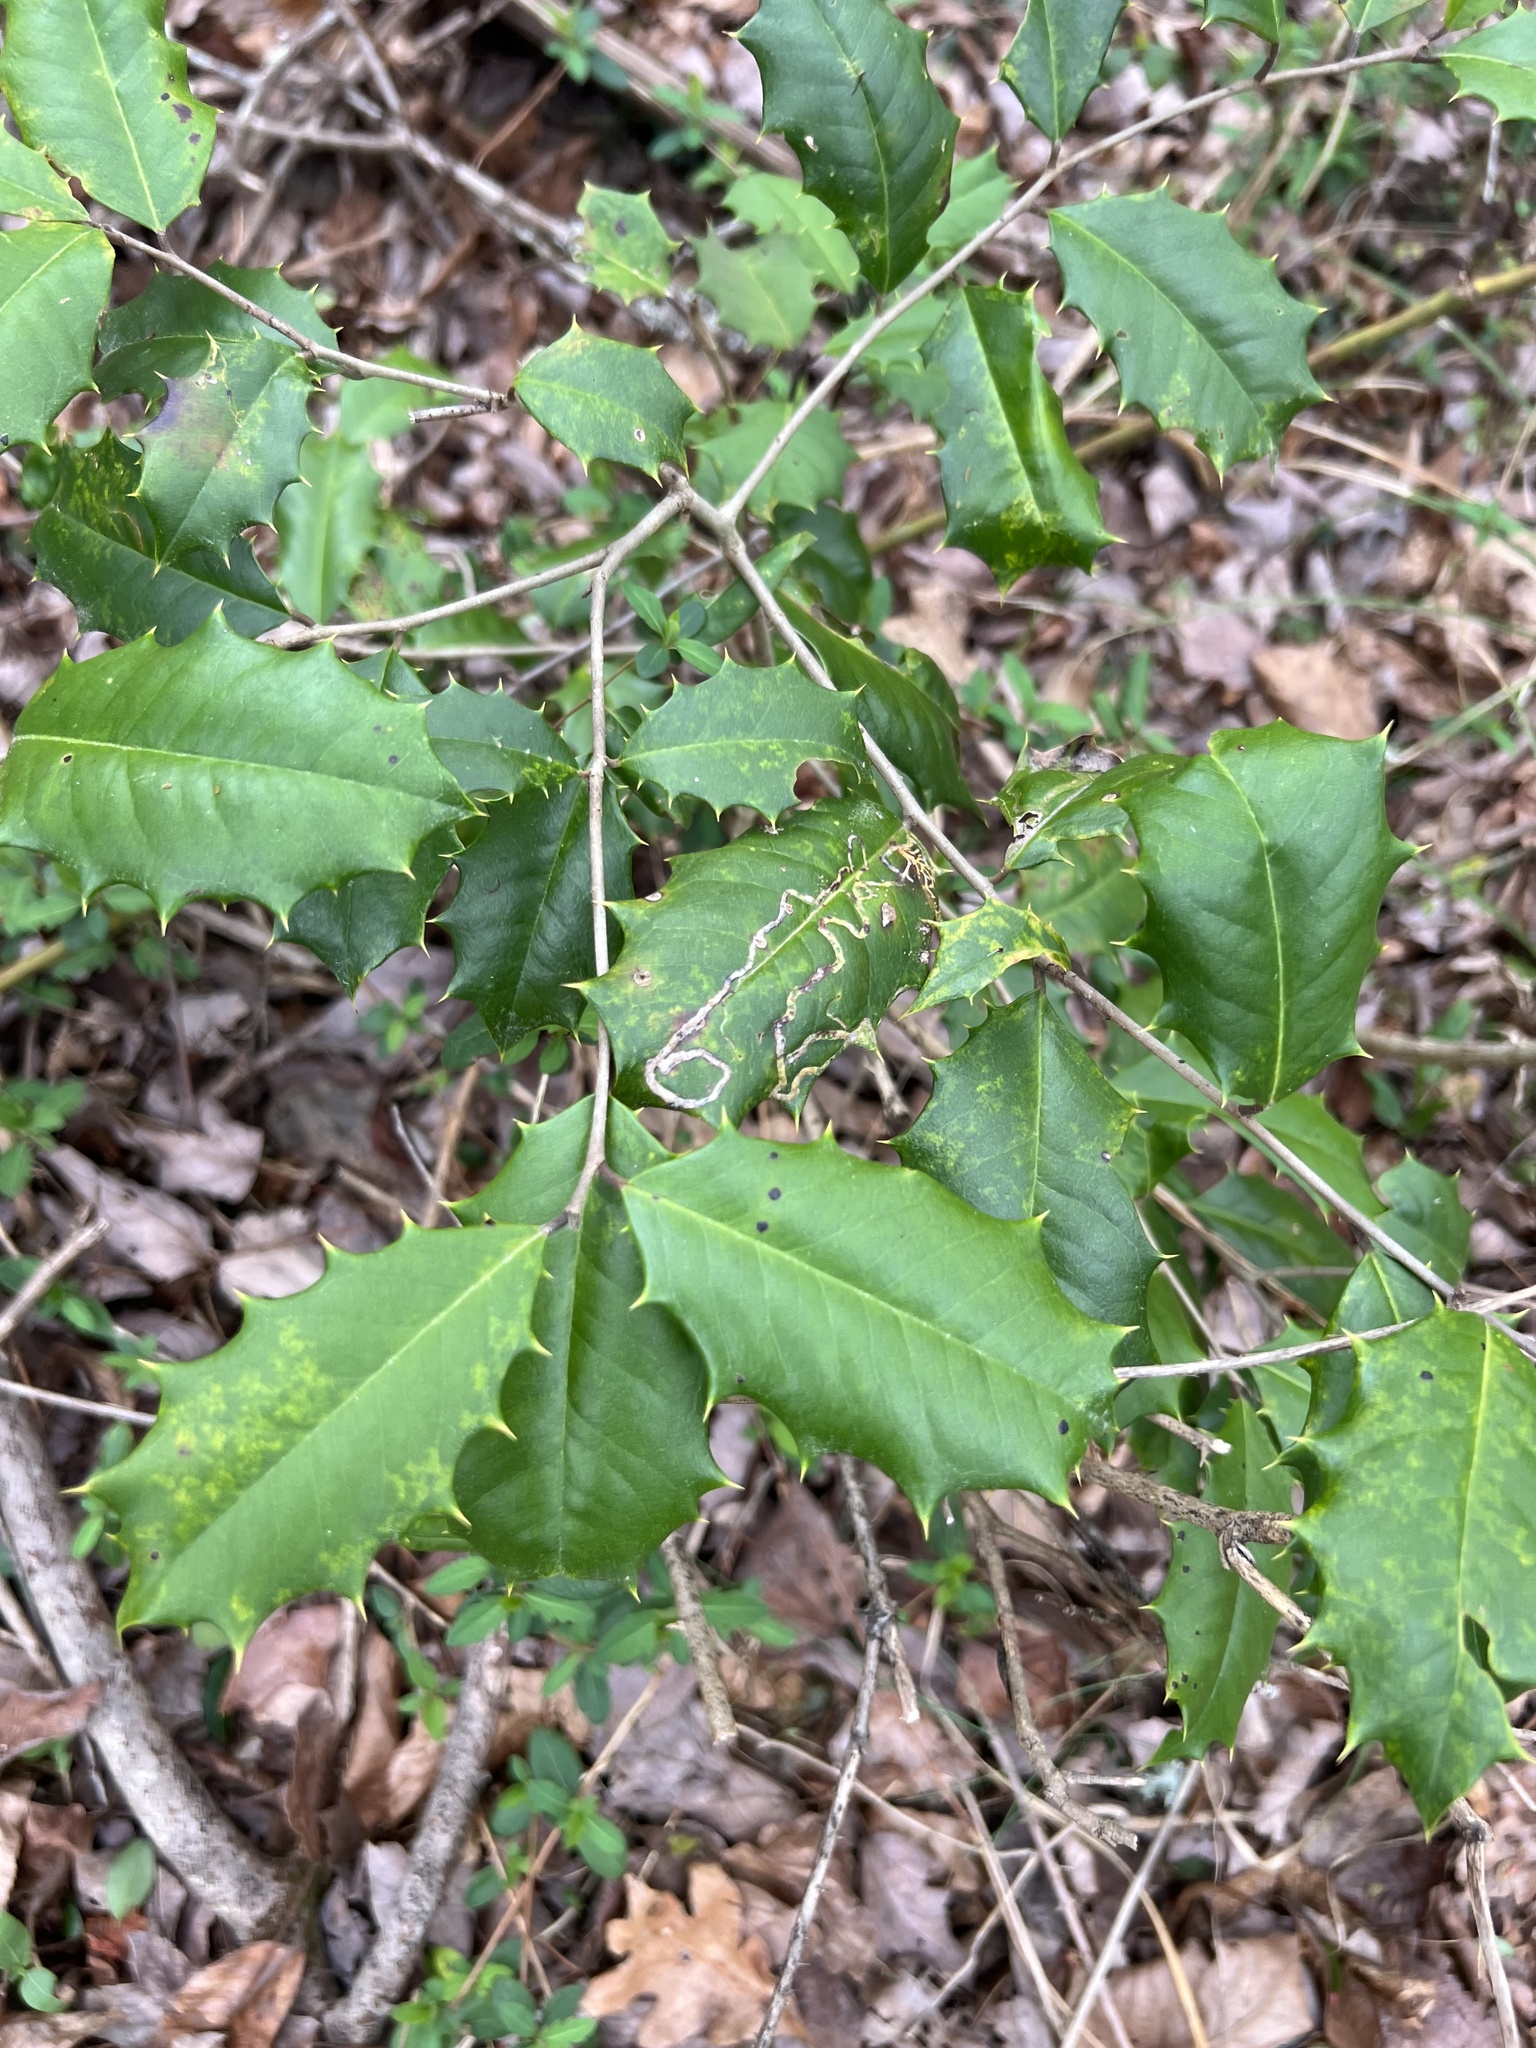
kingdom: Plantae
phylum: Tracheophyta
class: Magnoliopsida
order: Aquifoliales
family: Aquifoliaceae
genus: Ilex
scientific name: Ilex opaca
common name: American holly
